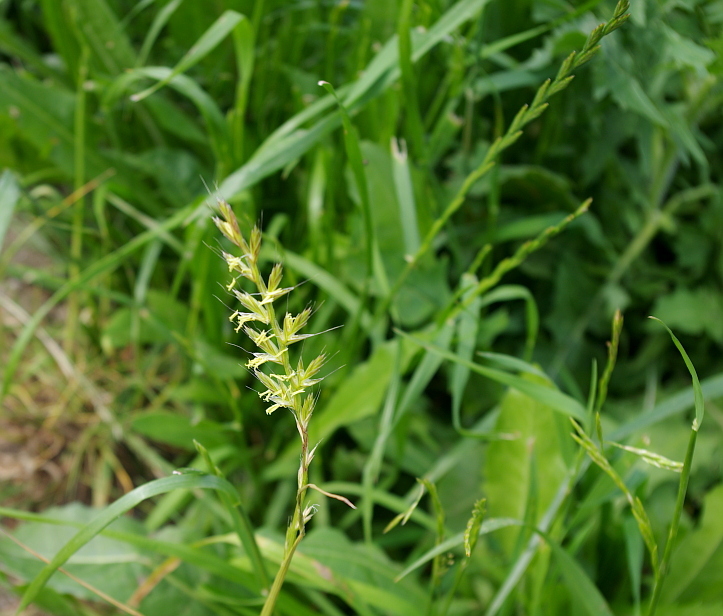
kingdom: Plantae
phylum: Tracheophyta
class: Liliopsida
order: Poales
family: Poaceae
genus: Lolium
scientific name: Lolium multiflorum
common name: Annual ryegrass
